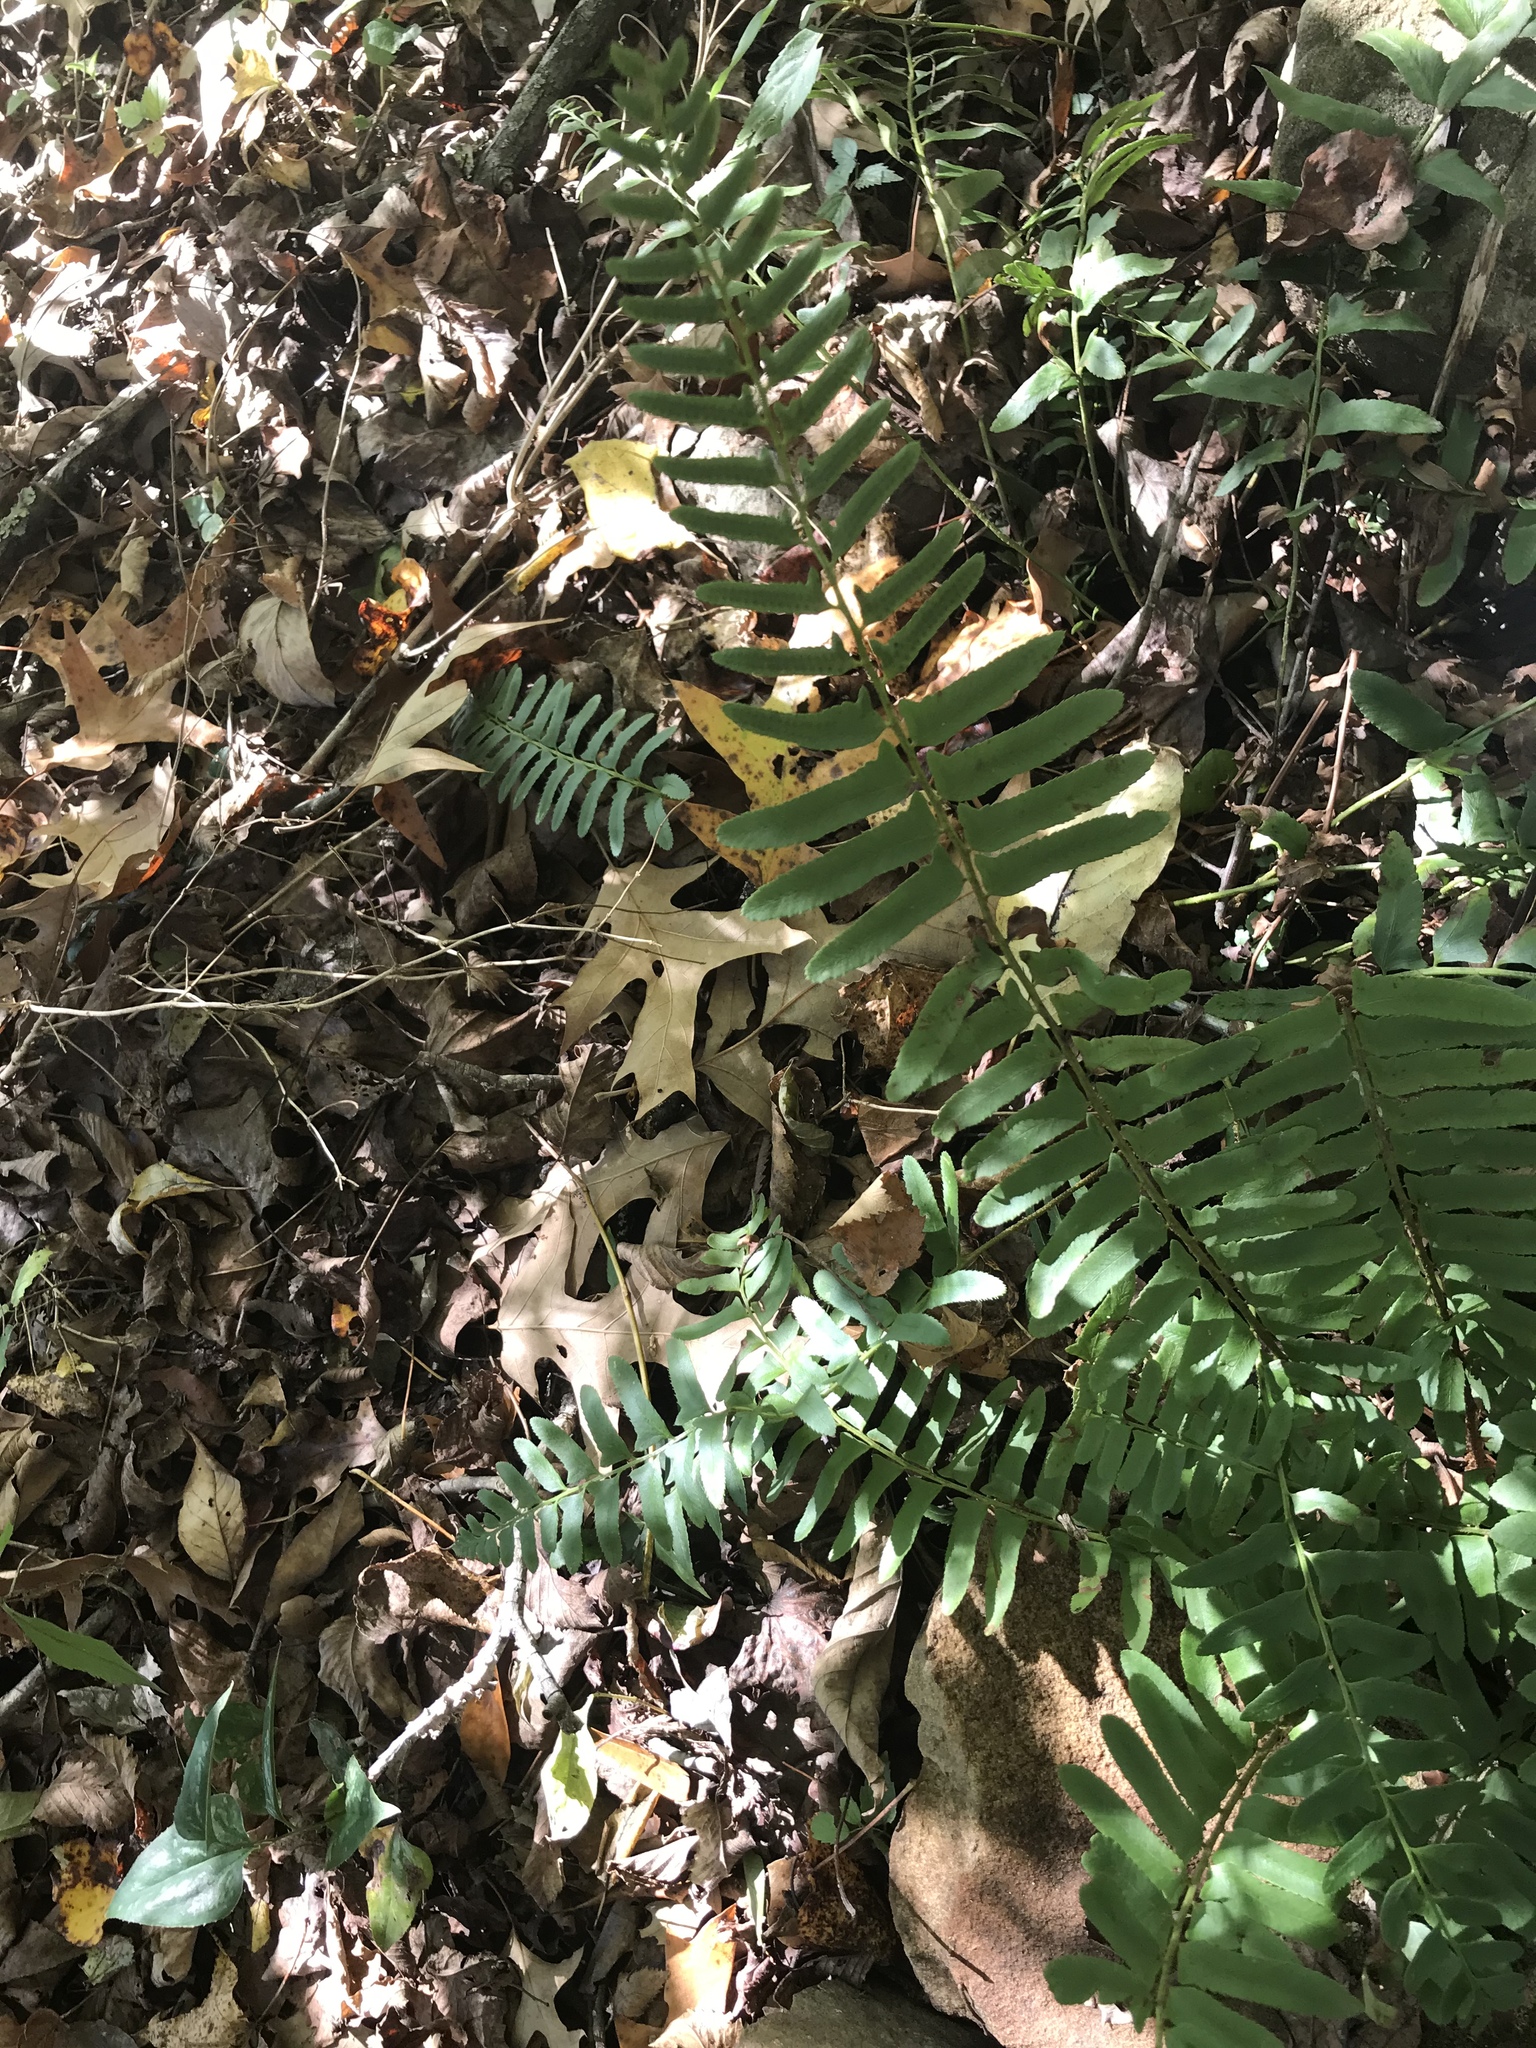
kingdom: Plantae
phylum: Tracheophyta
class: Polypodiopsida
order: Polypodiales
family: Dryopteridaceae
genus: Polystichum
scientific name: Polystichum acrostichoides
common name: Christmas fern
